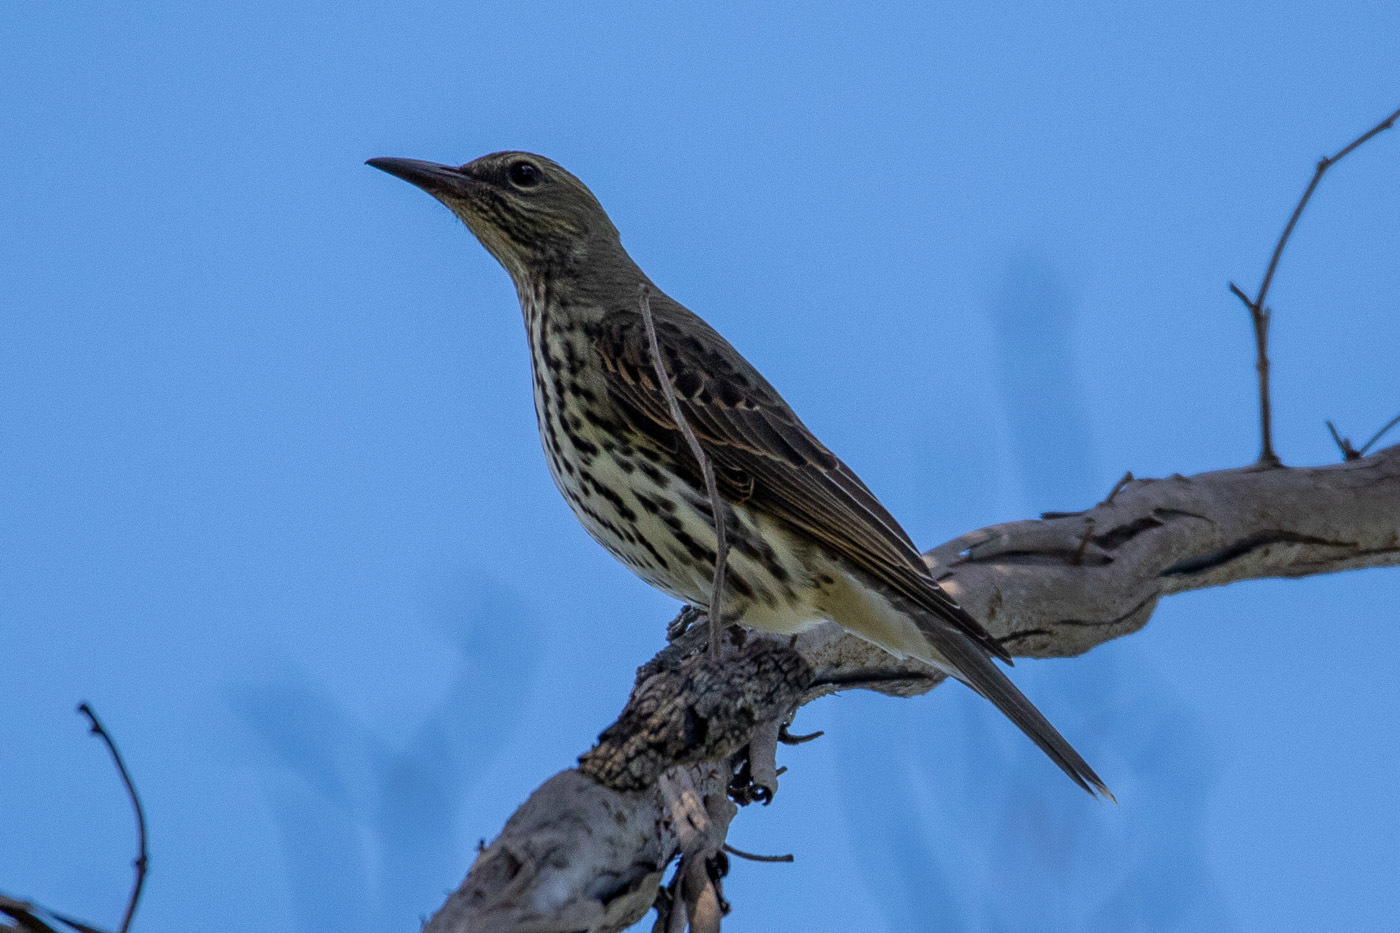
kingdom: Animalia
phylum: Chordata
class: Aves
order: Passeriformes
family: Oriolidae
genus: Oriolus
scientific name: Oriolus sagittatus
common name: Olive-backed oriole
